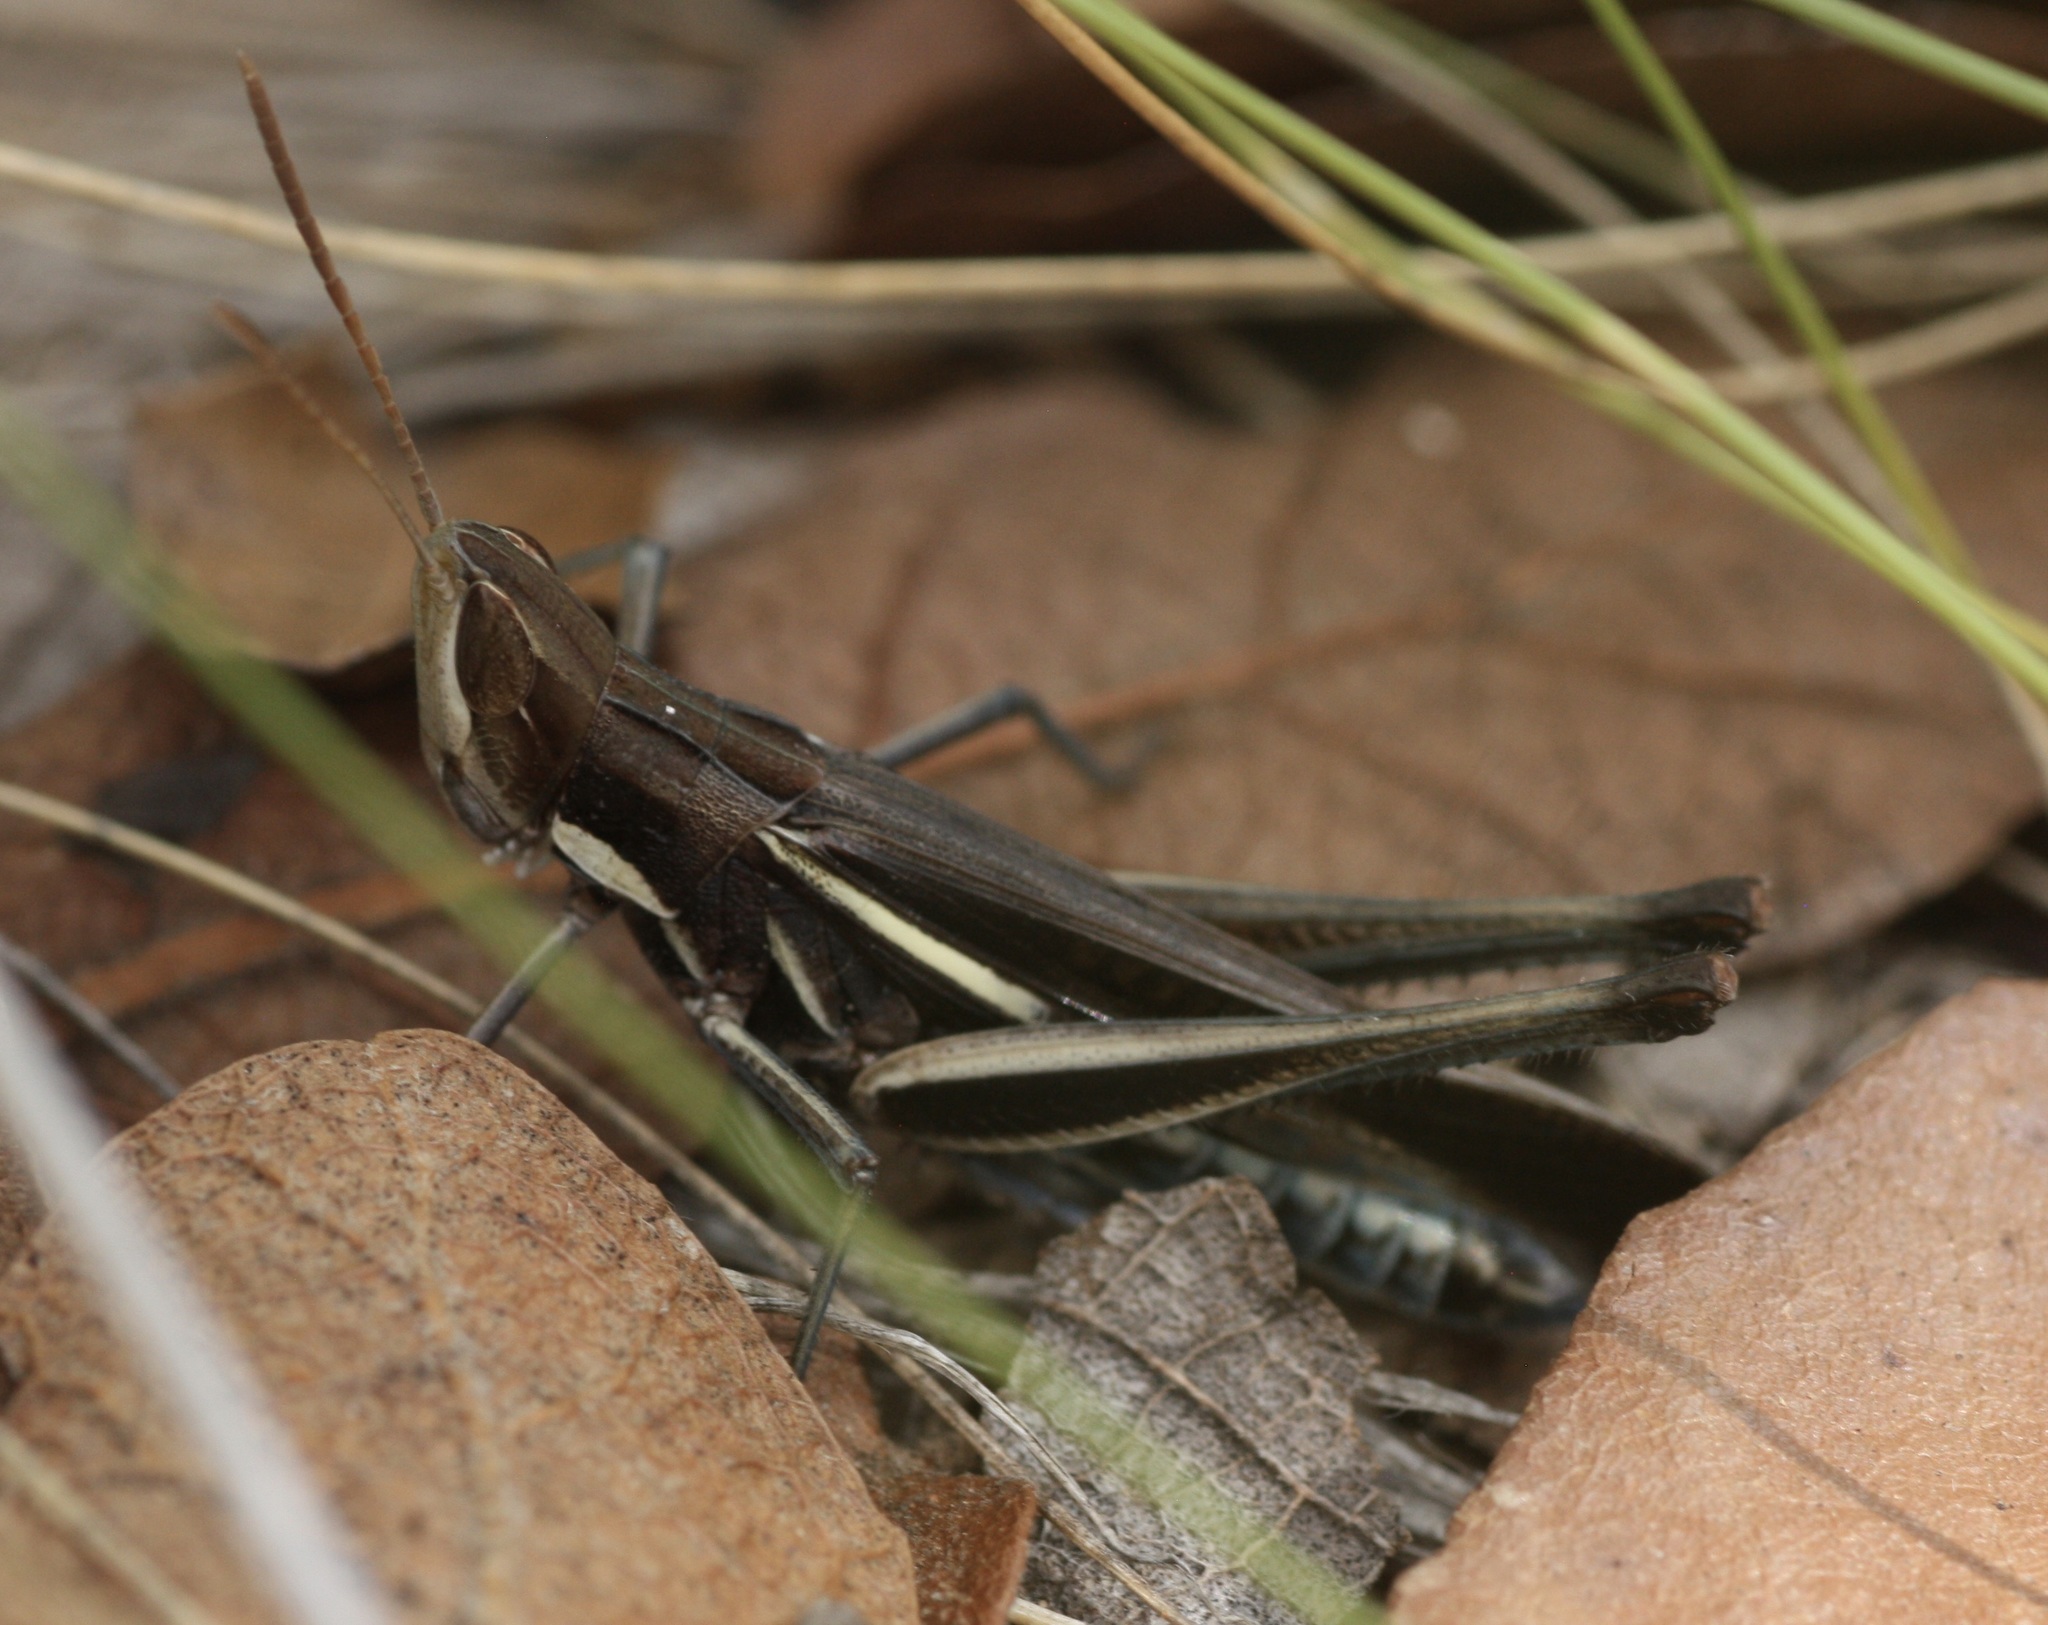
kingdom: Animalia
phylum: Arthropoda
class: Insecta
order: Orthoptera
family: Acrididae
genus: Syrbula
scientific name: Syrbula montezuma
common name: Montezuma's grasshopper
